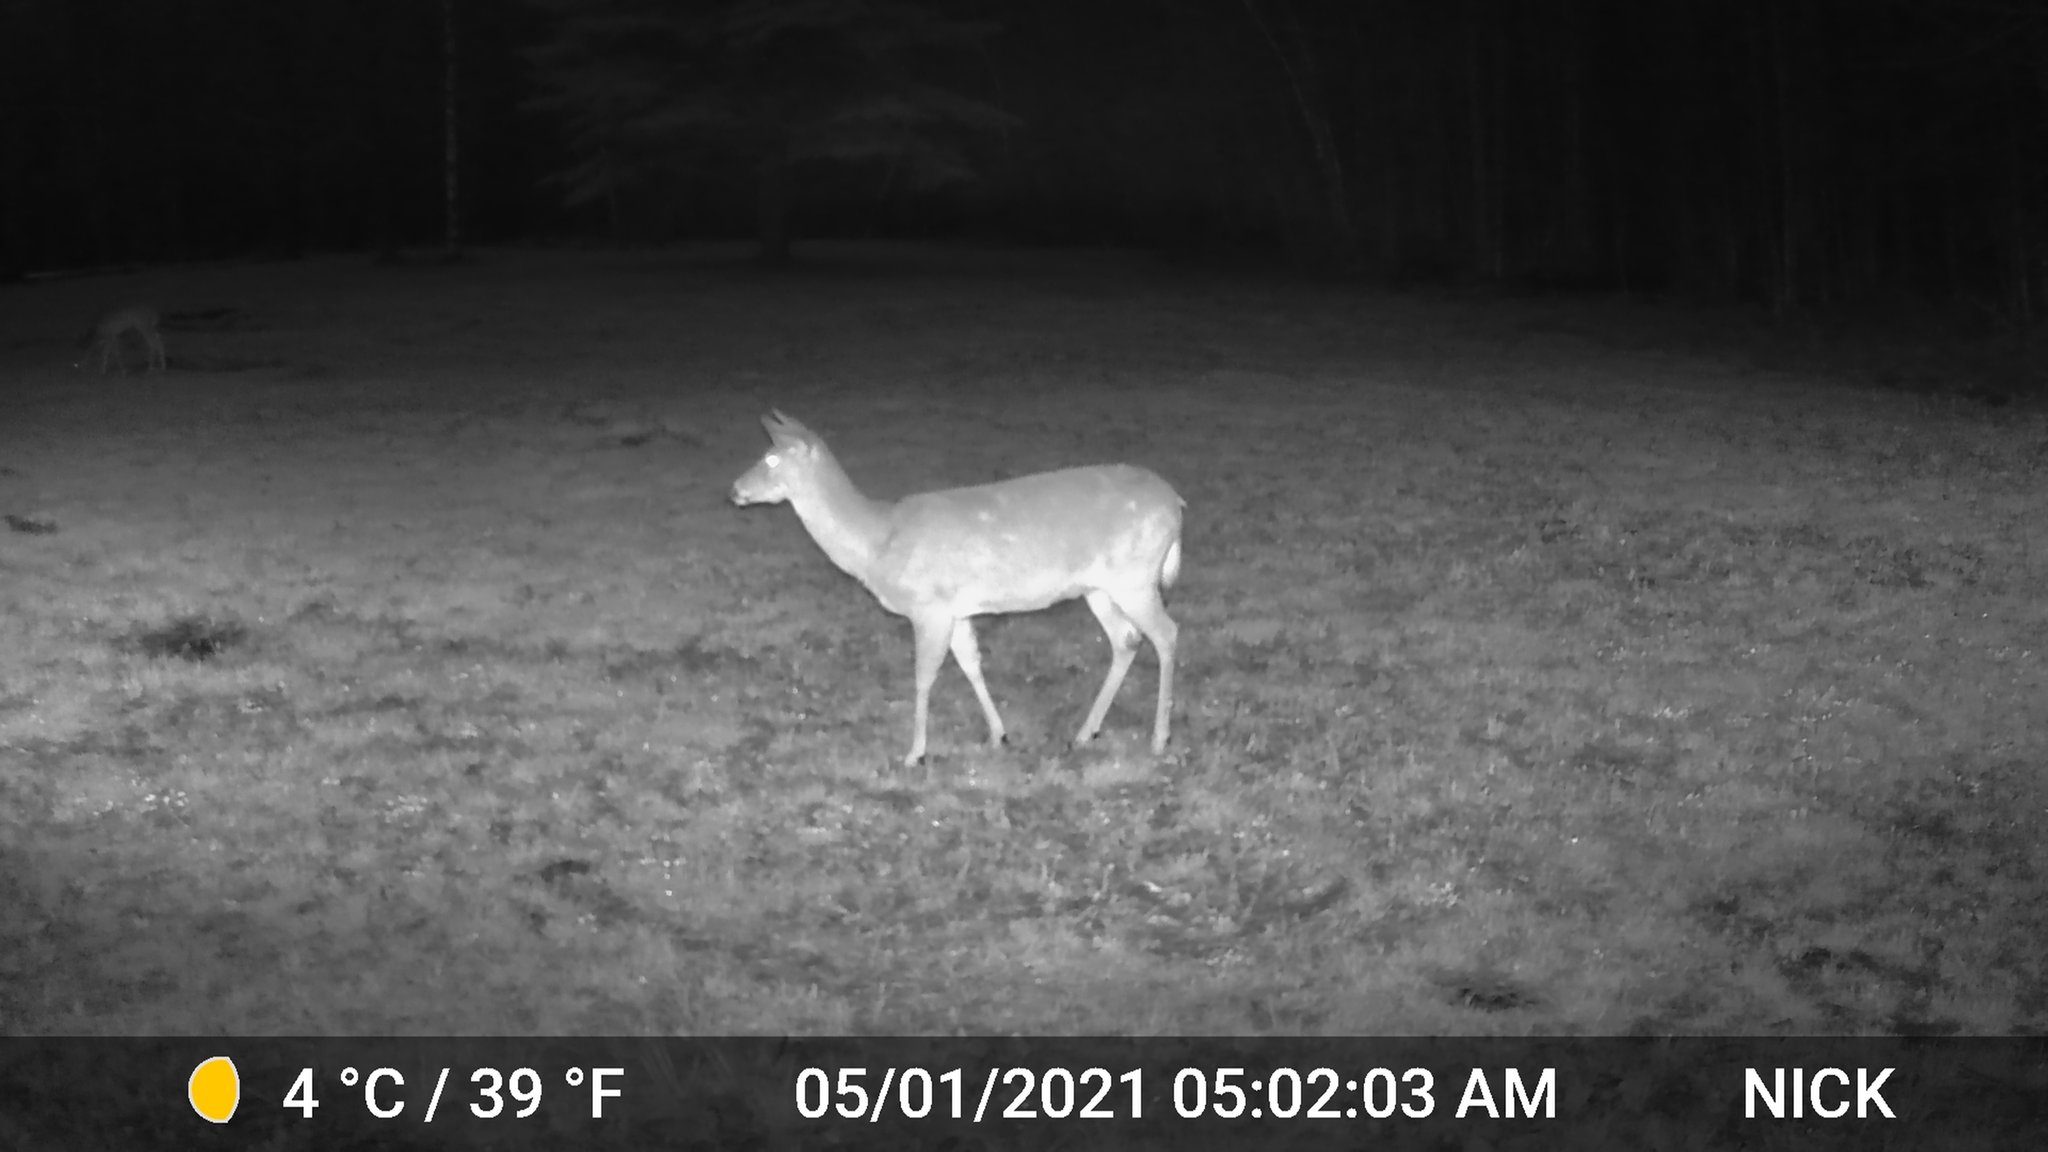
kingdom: Animalia
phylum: Chordata
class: Mammalia
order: Artiodactyla
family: Cervidae
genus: Odocoileus
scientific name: Odocoileus virginianus
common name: White-tailed deer
